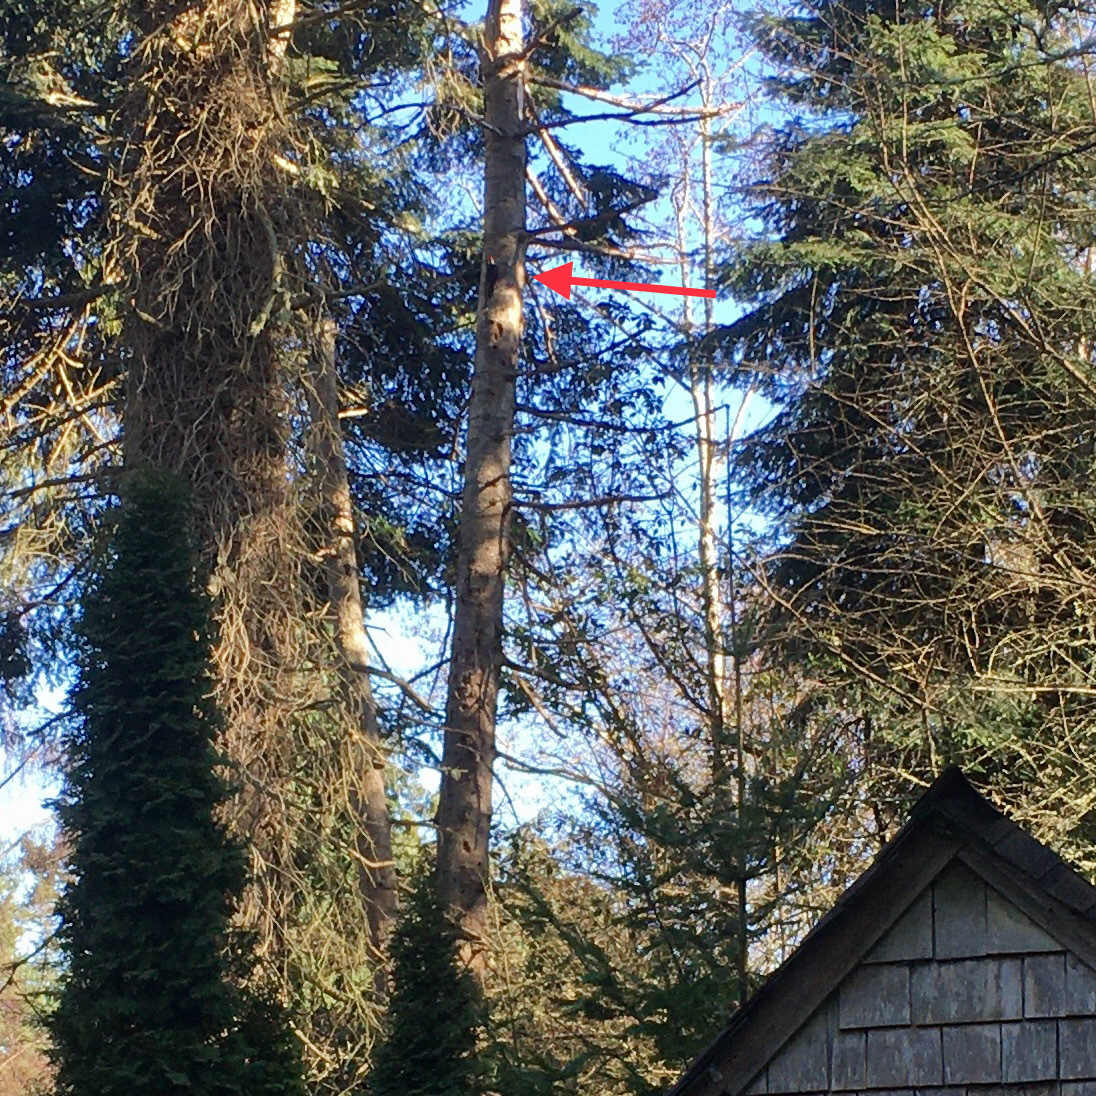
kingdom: Animalia
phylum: Chordata
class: Aves
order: Piciformes
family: Picidae
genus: Dryocopus
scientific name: Dryocopus pileatus
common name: Pileated woodpecker
